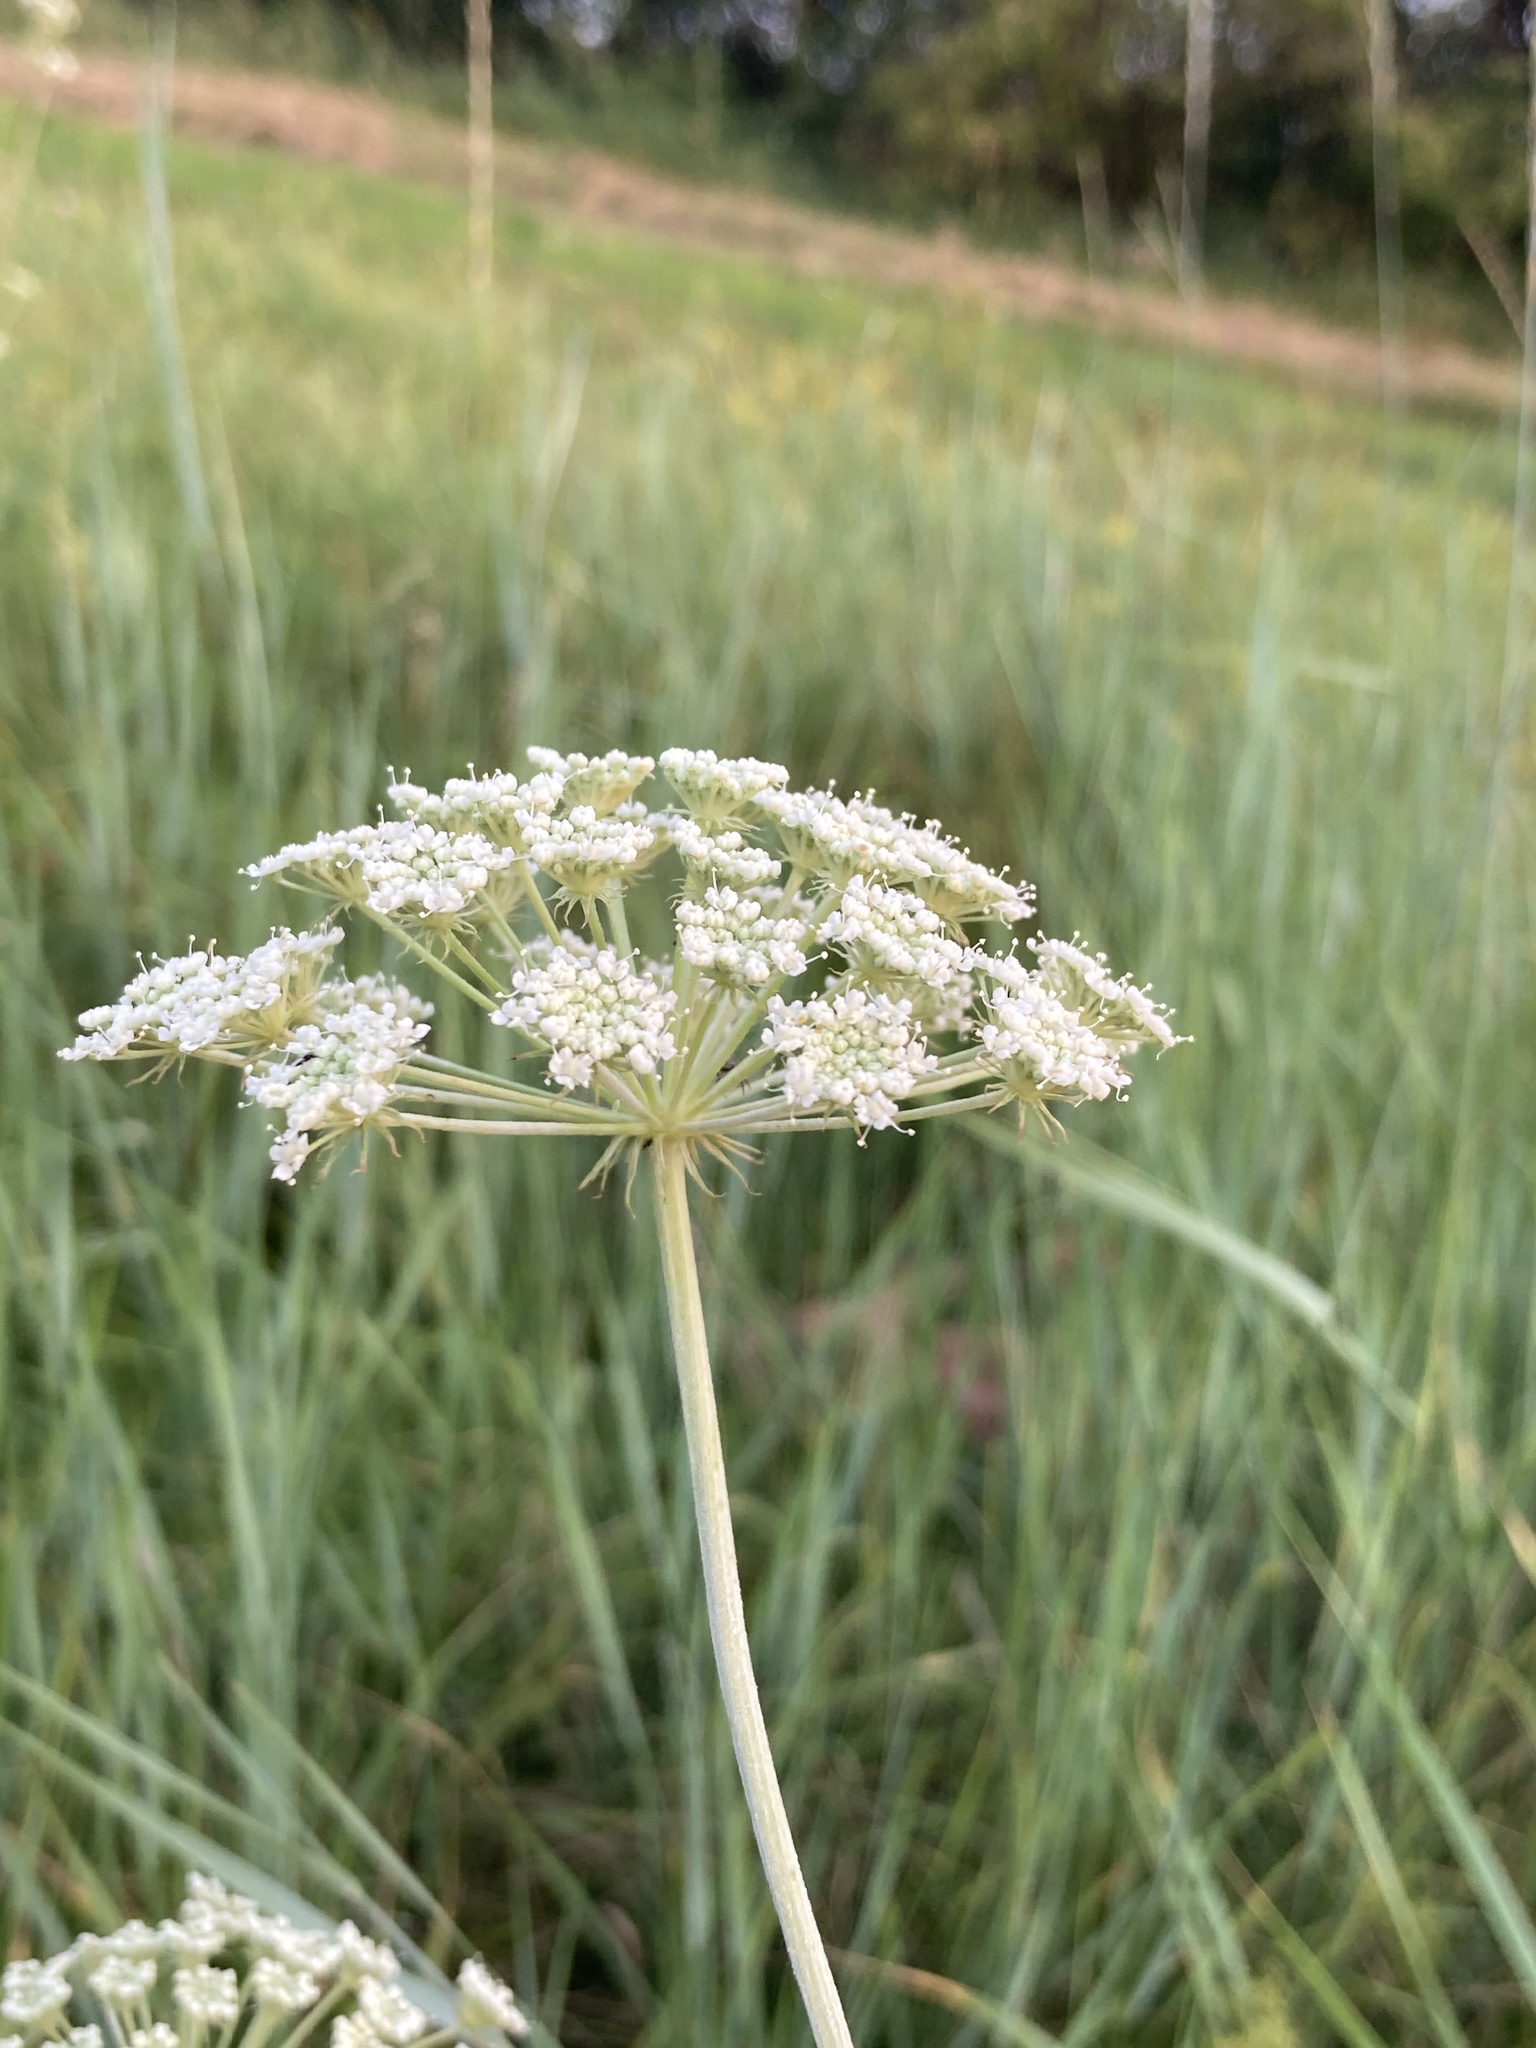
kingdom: Plantae
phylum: Tracheophyta
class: Magnoliopsida
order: Apiales
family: Apiaceae
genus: Seseli
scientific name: Seseli libanotis
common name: Mooncarrot
